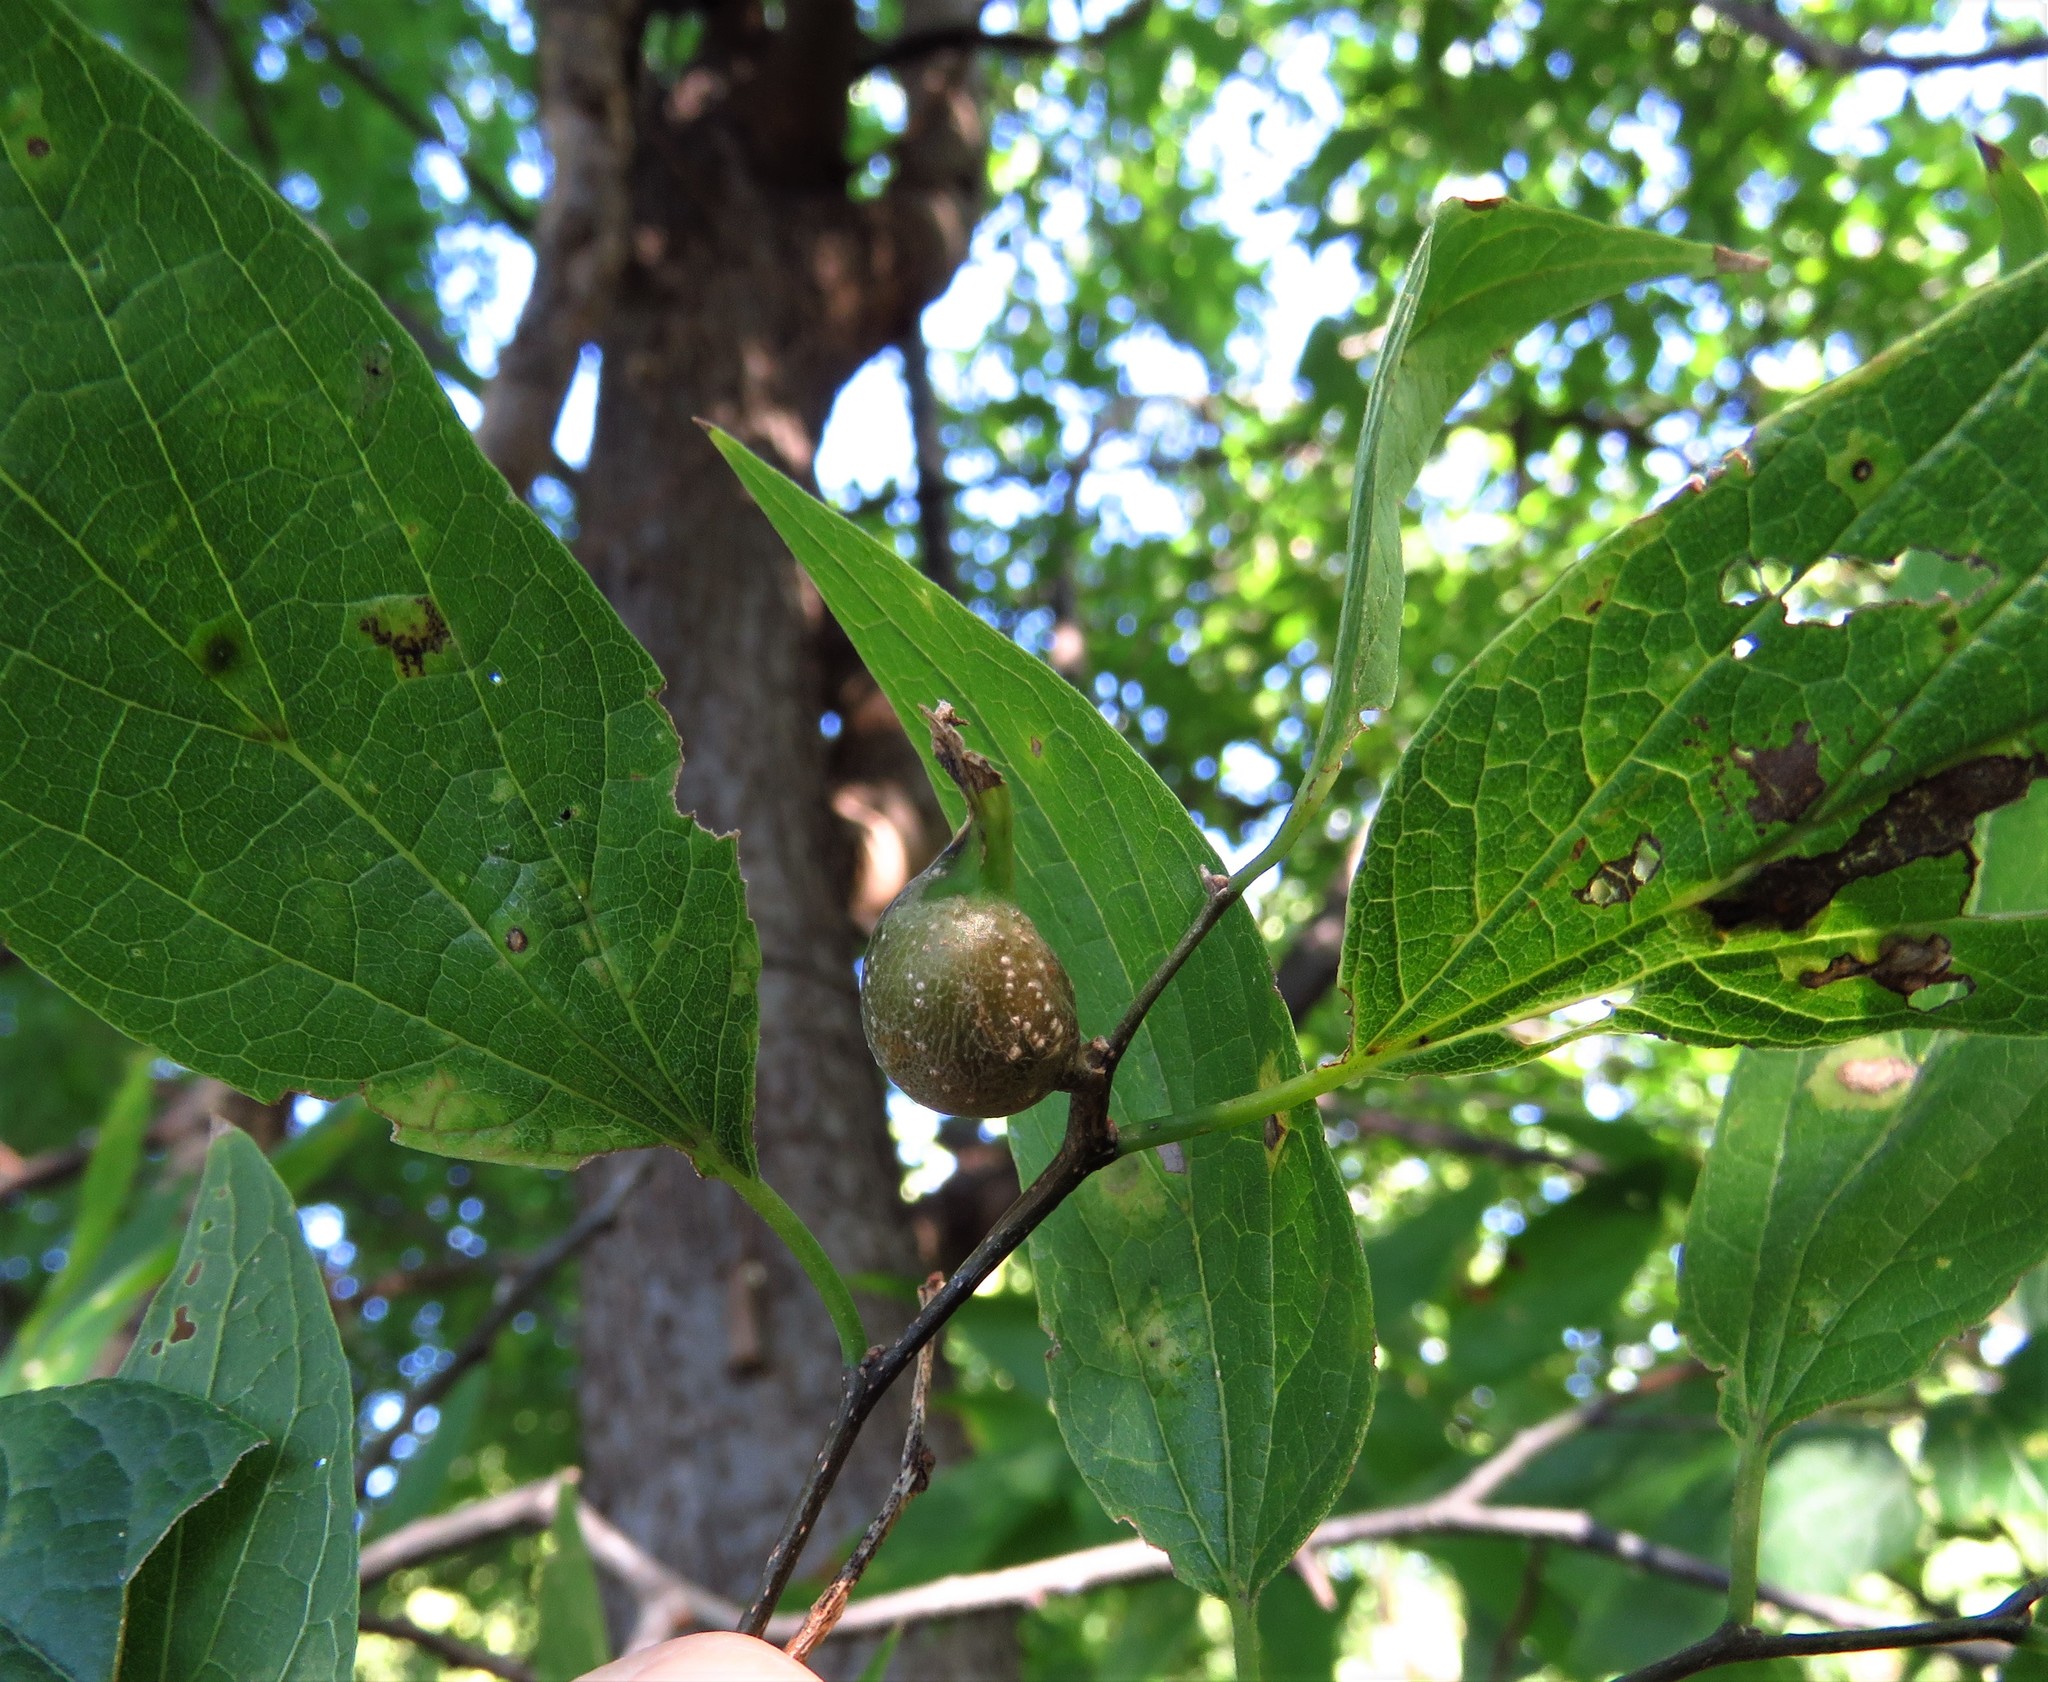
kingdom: Animalia
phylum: Arthropoda
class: Insecta
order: Hemiptera
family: Aphalaridae
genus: Pachypsylla
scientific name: Pachypsylla venusta
